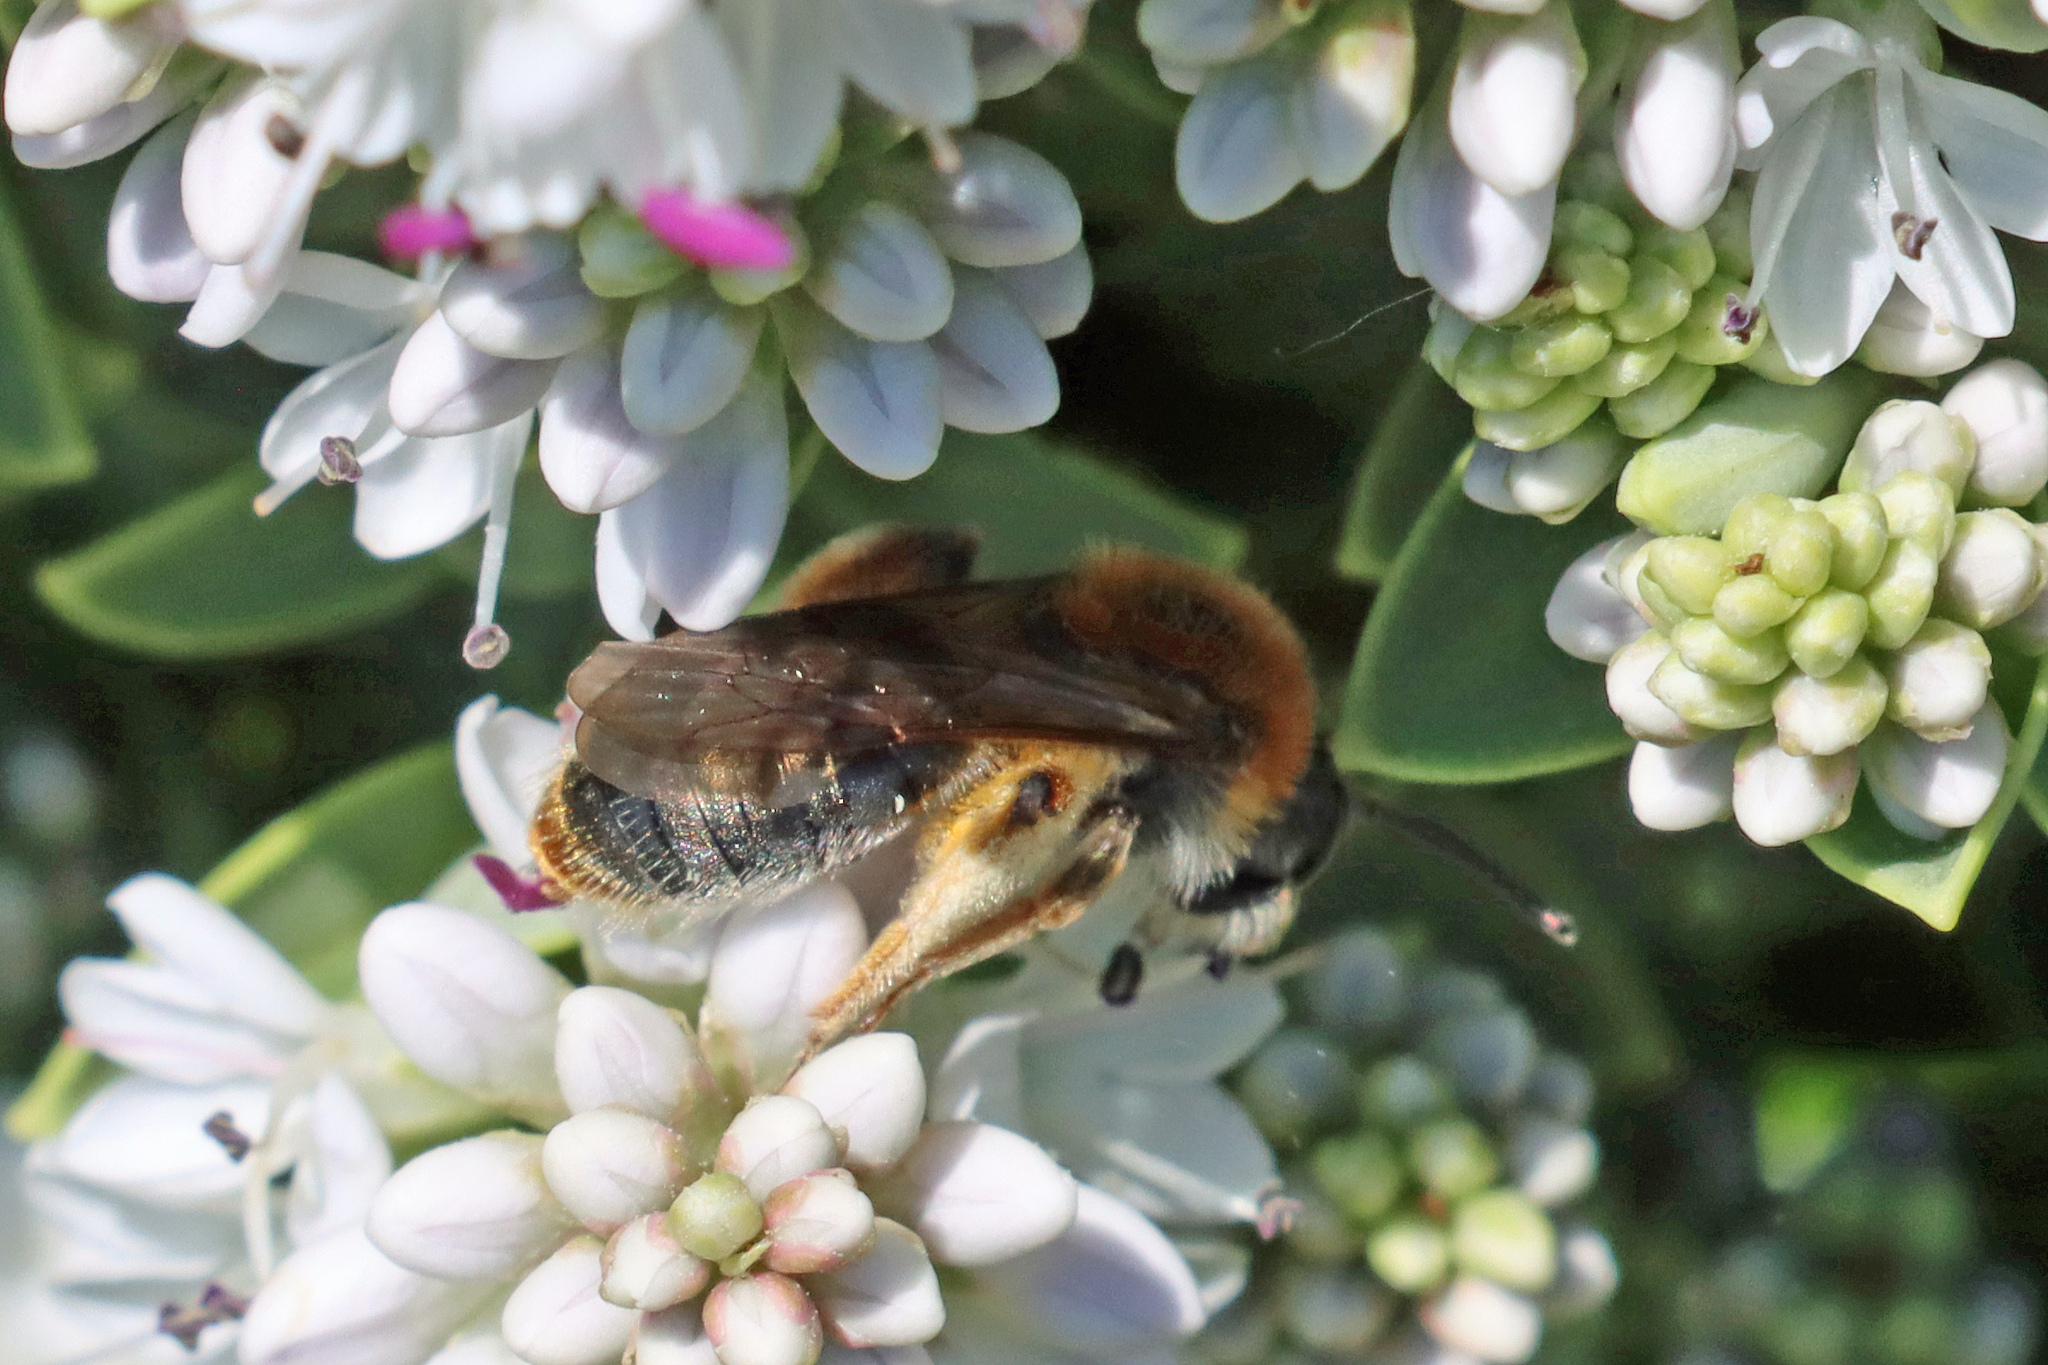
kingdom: Animalia
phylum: Arthropoda
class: Insecta
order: Hymenoptera
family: Andrenidae
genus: Andrena
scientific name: Andrena haemorrhoa
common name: Early mining bee
